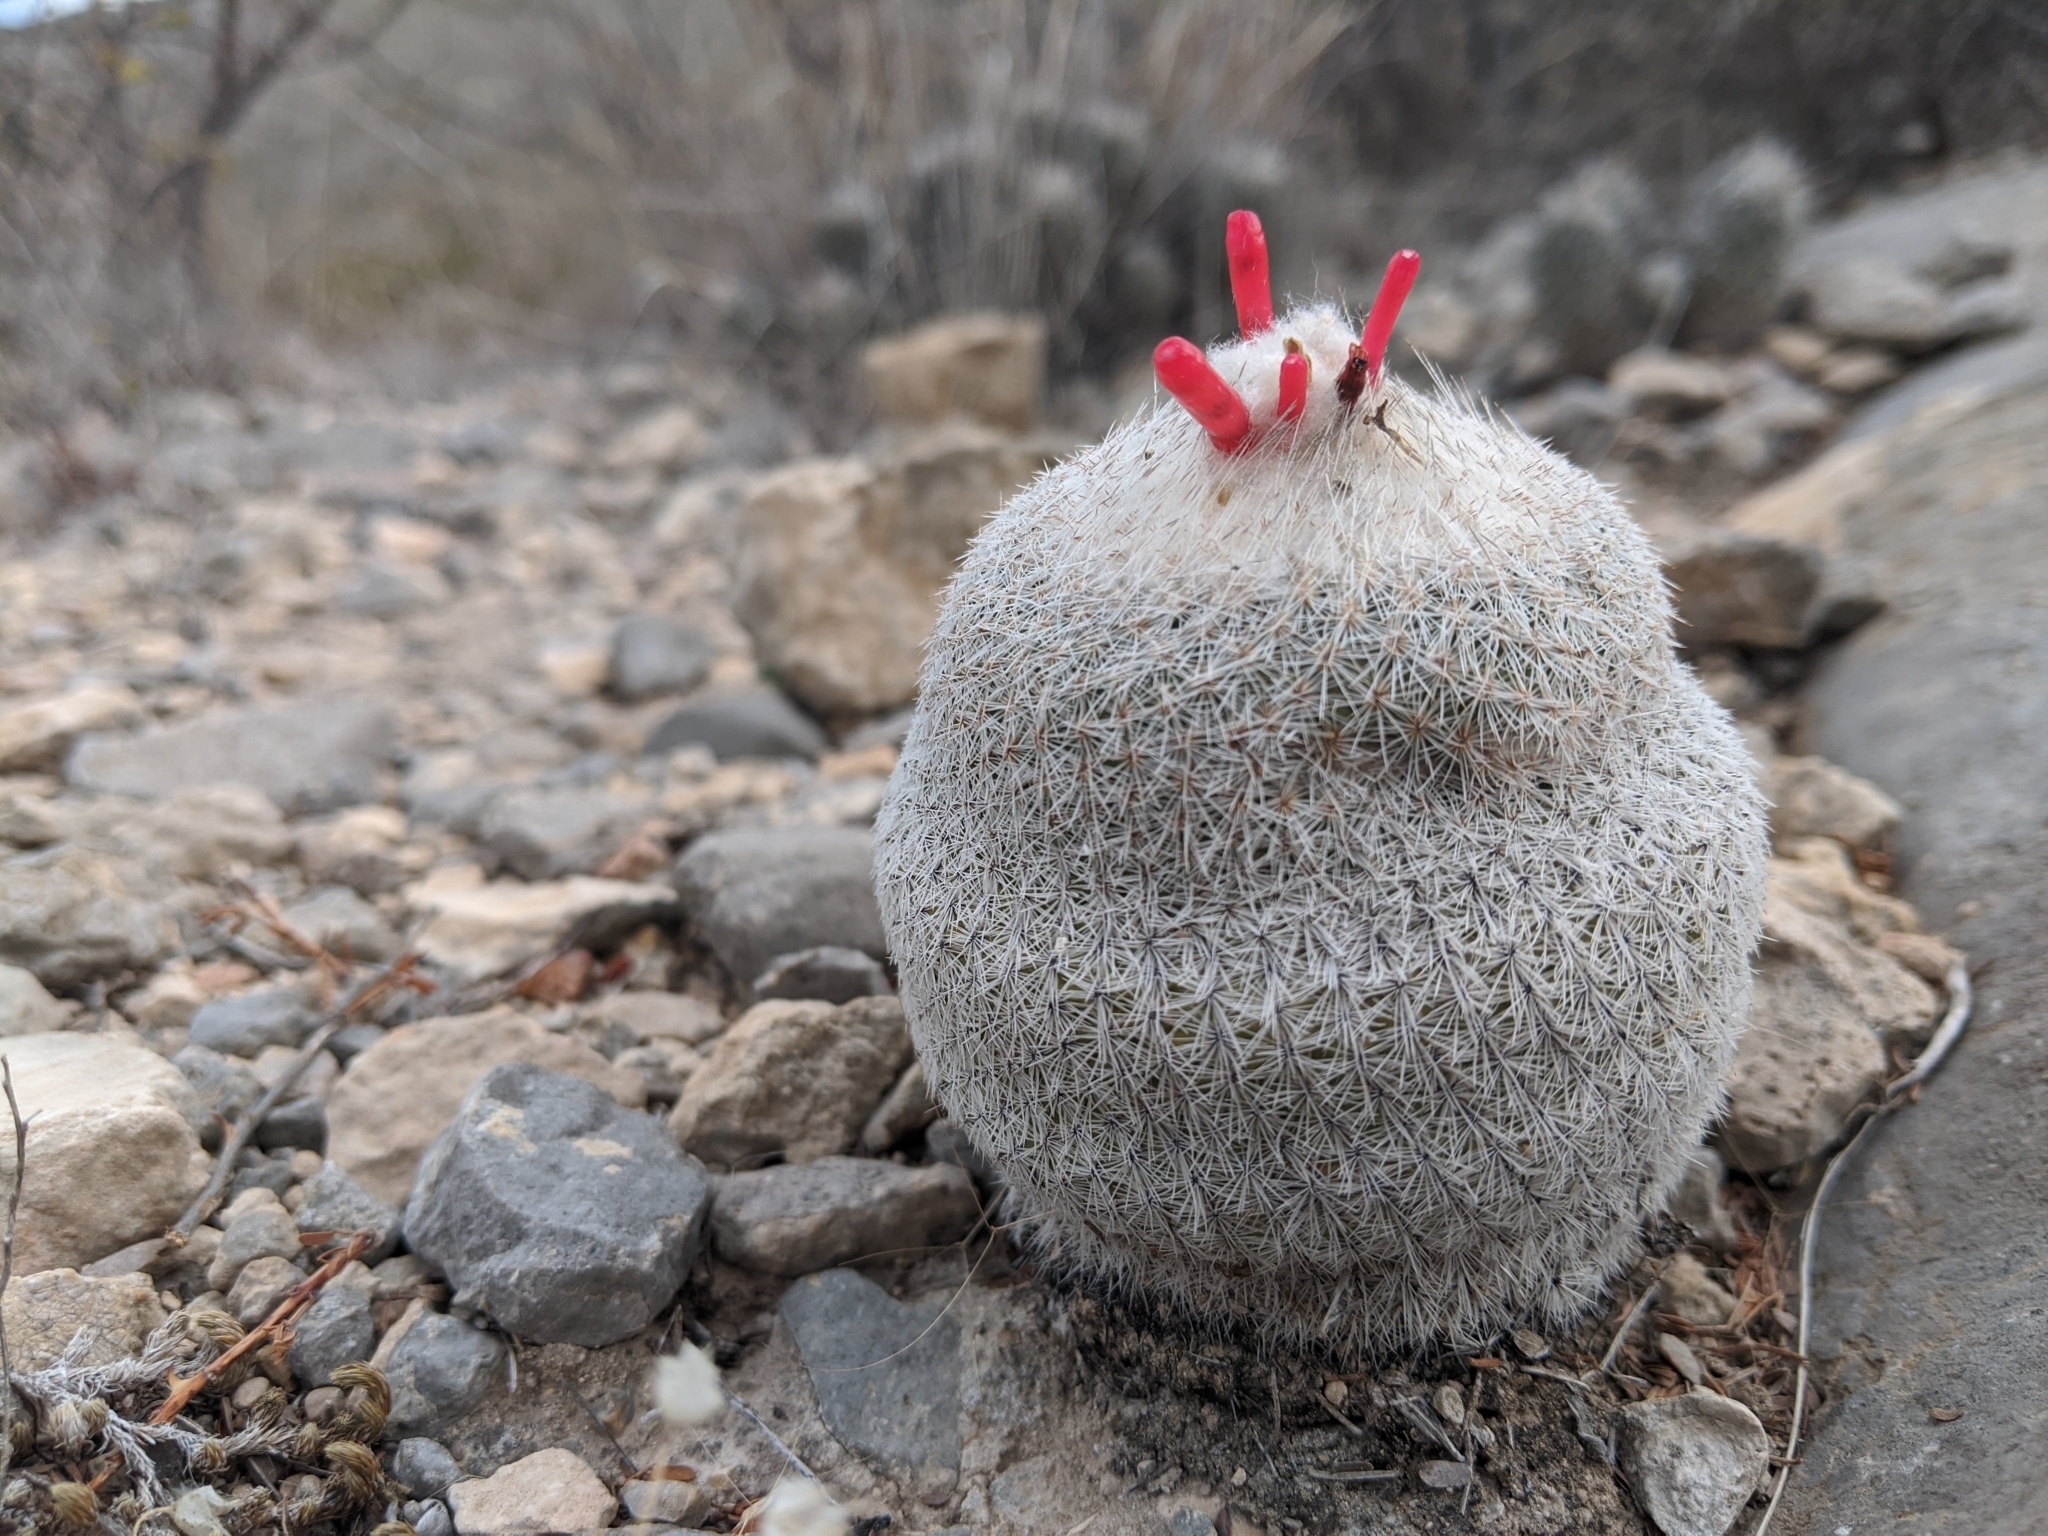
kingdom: Plantae
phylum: Tracheophyta
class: Magnoliopsida
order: Caryophyllales
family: Cactaceae
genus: Epithelantha
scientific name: Epithelantha micromeris
